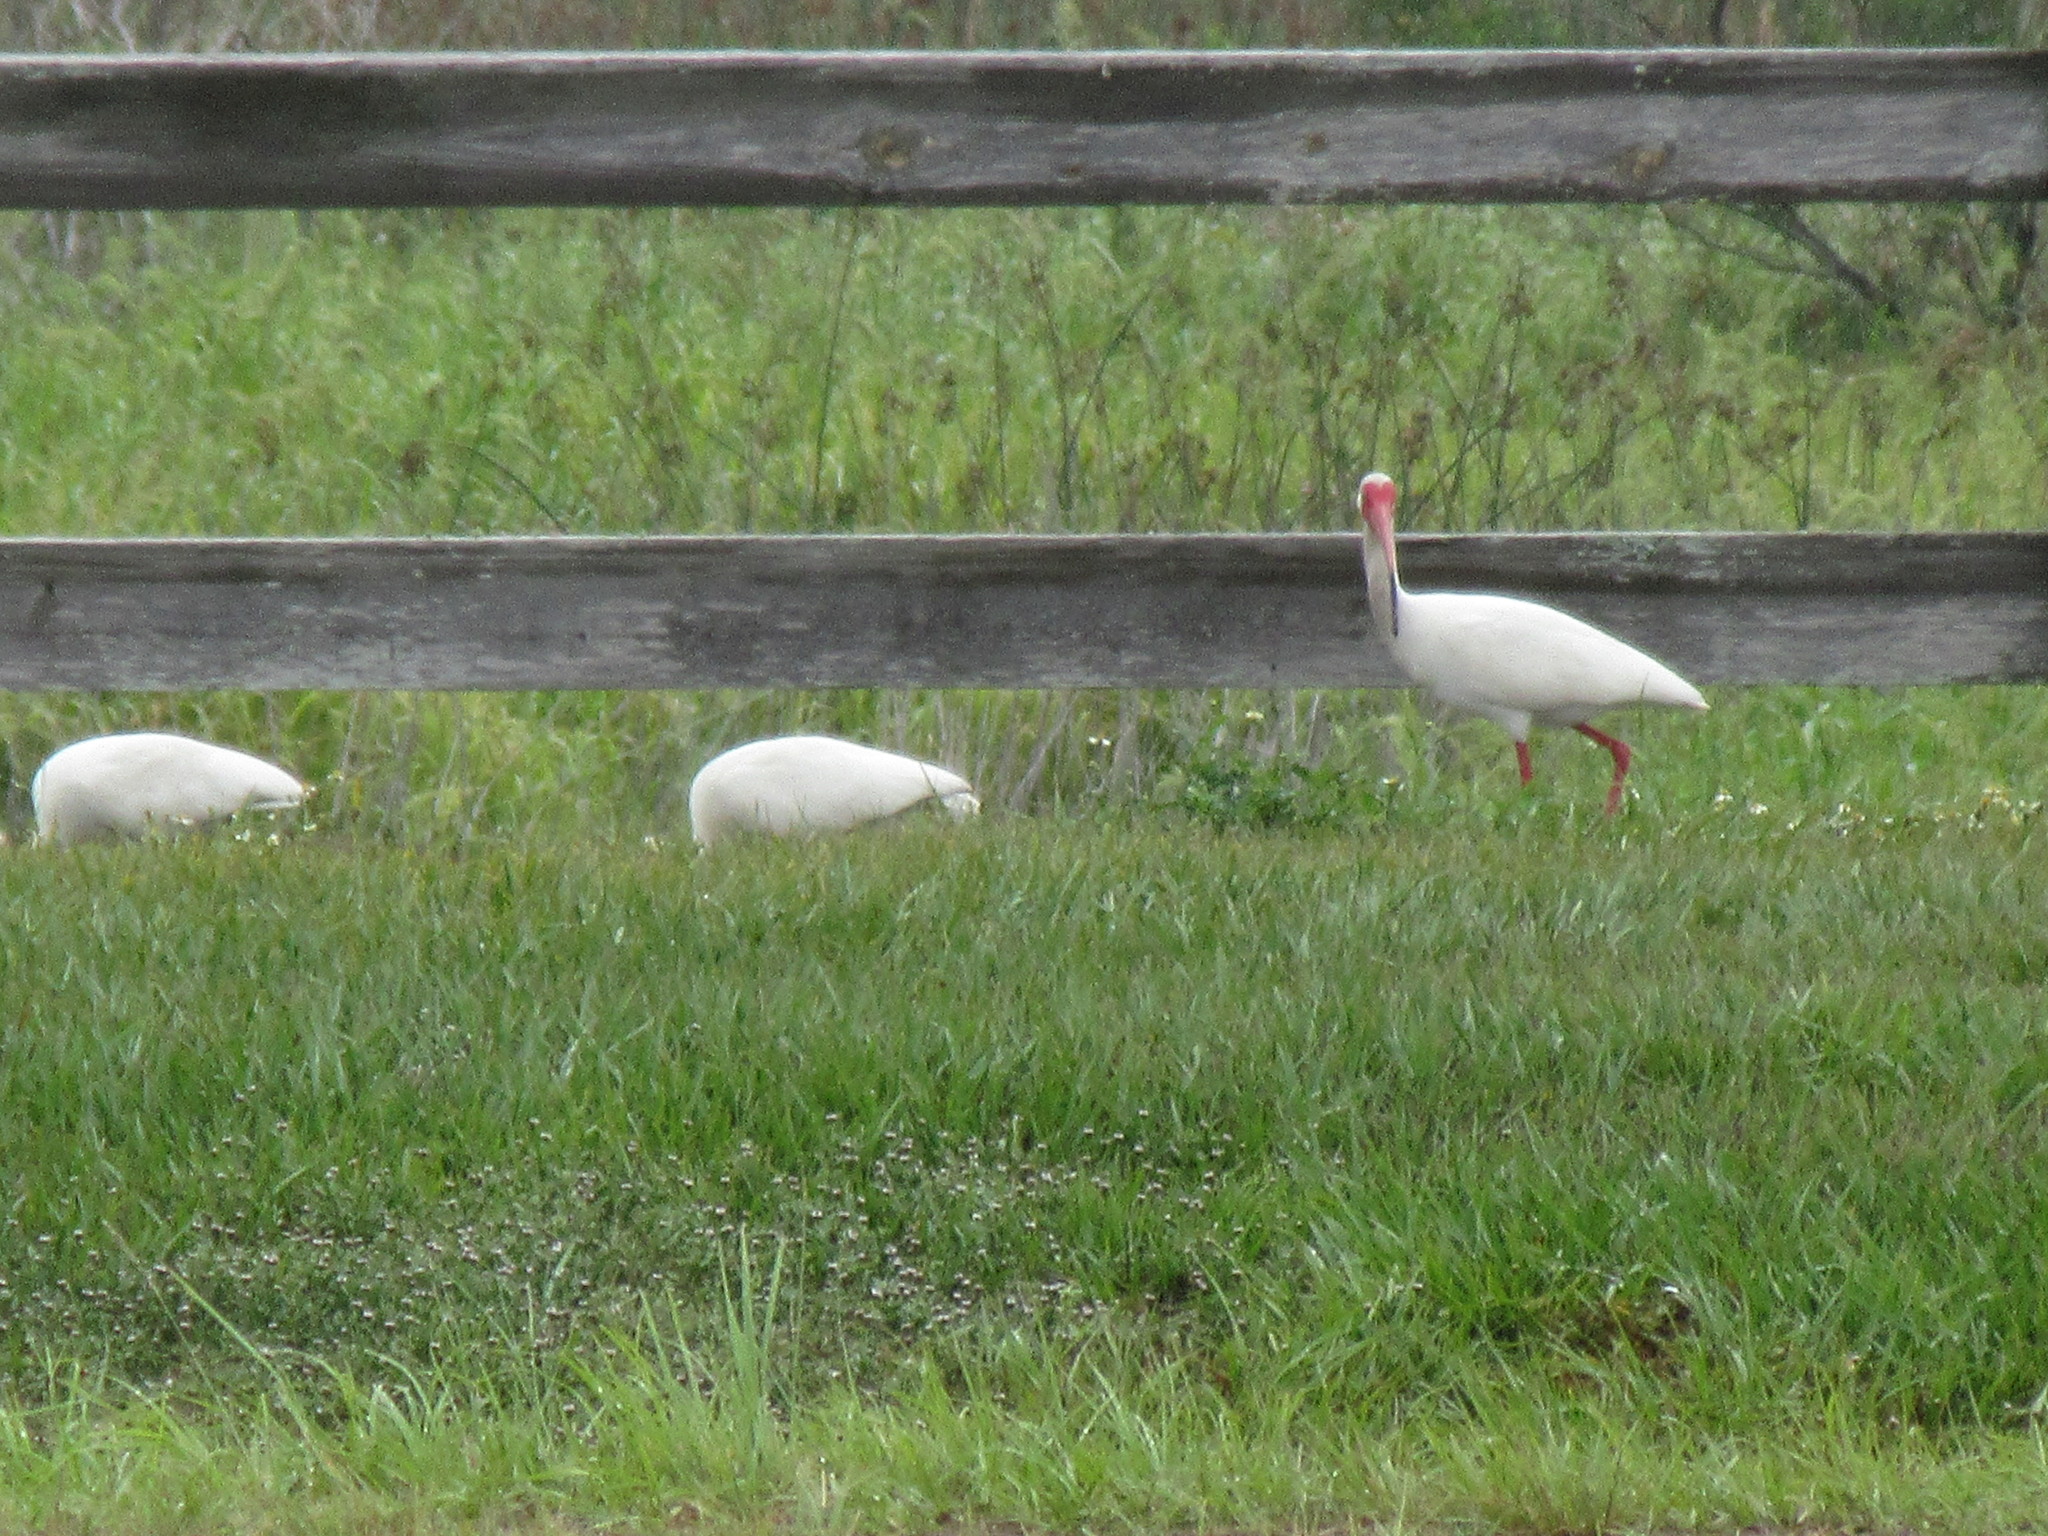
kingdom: Animalia
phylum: Chordata
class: Aves
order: Pelecaniformes
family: Threskiornithidae
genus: Eudocimus
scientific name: Eudocimus albus
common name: White ibis
